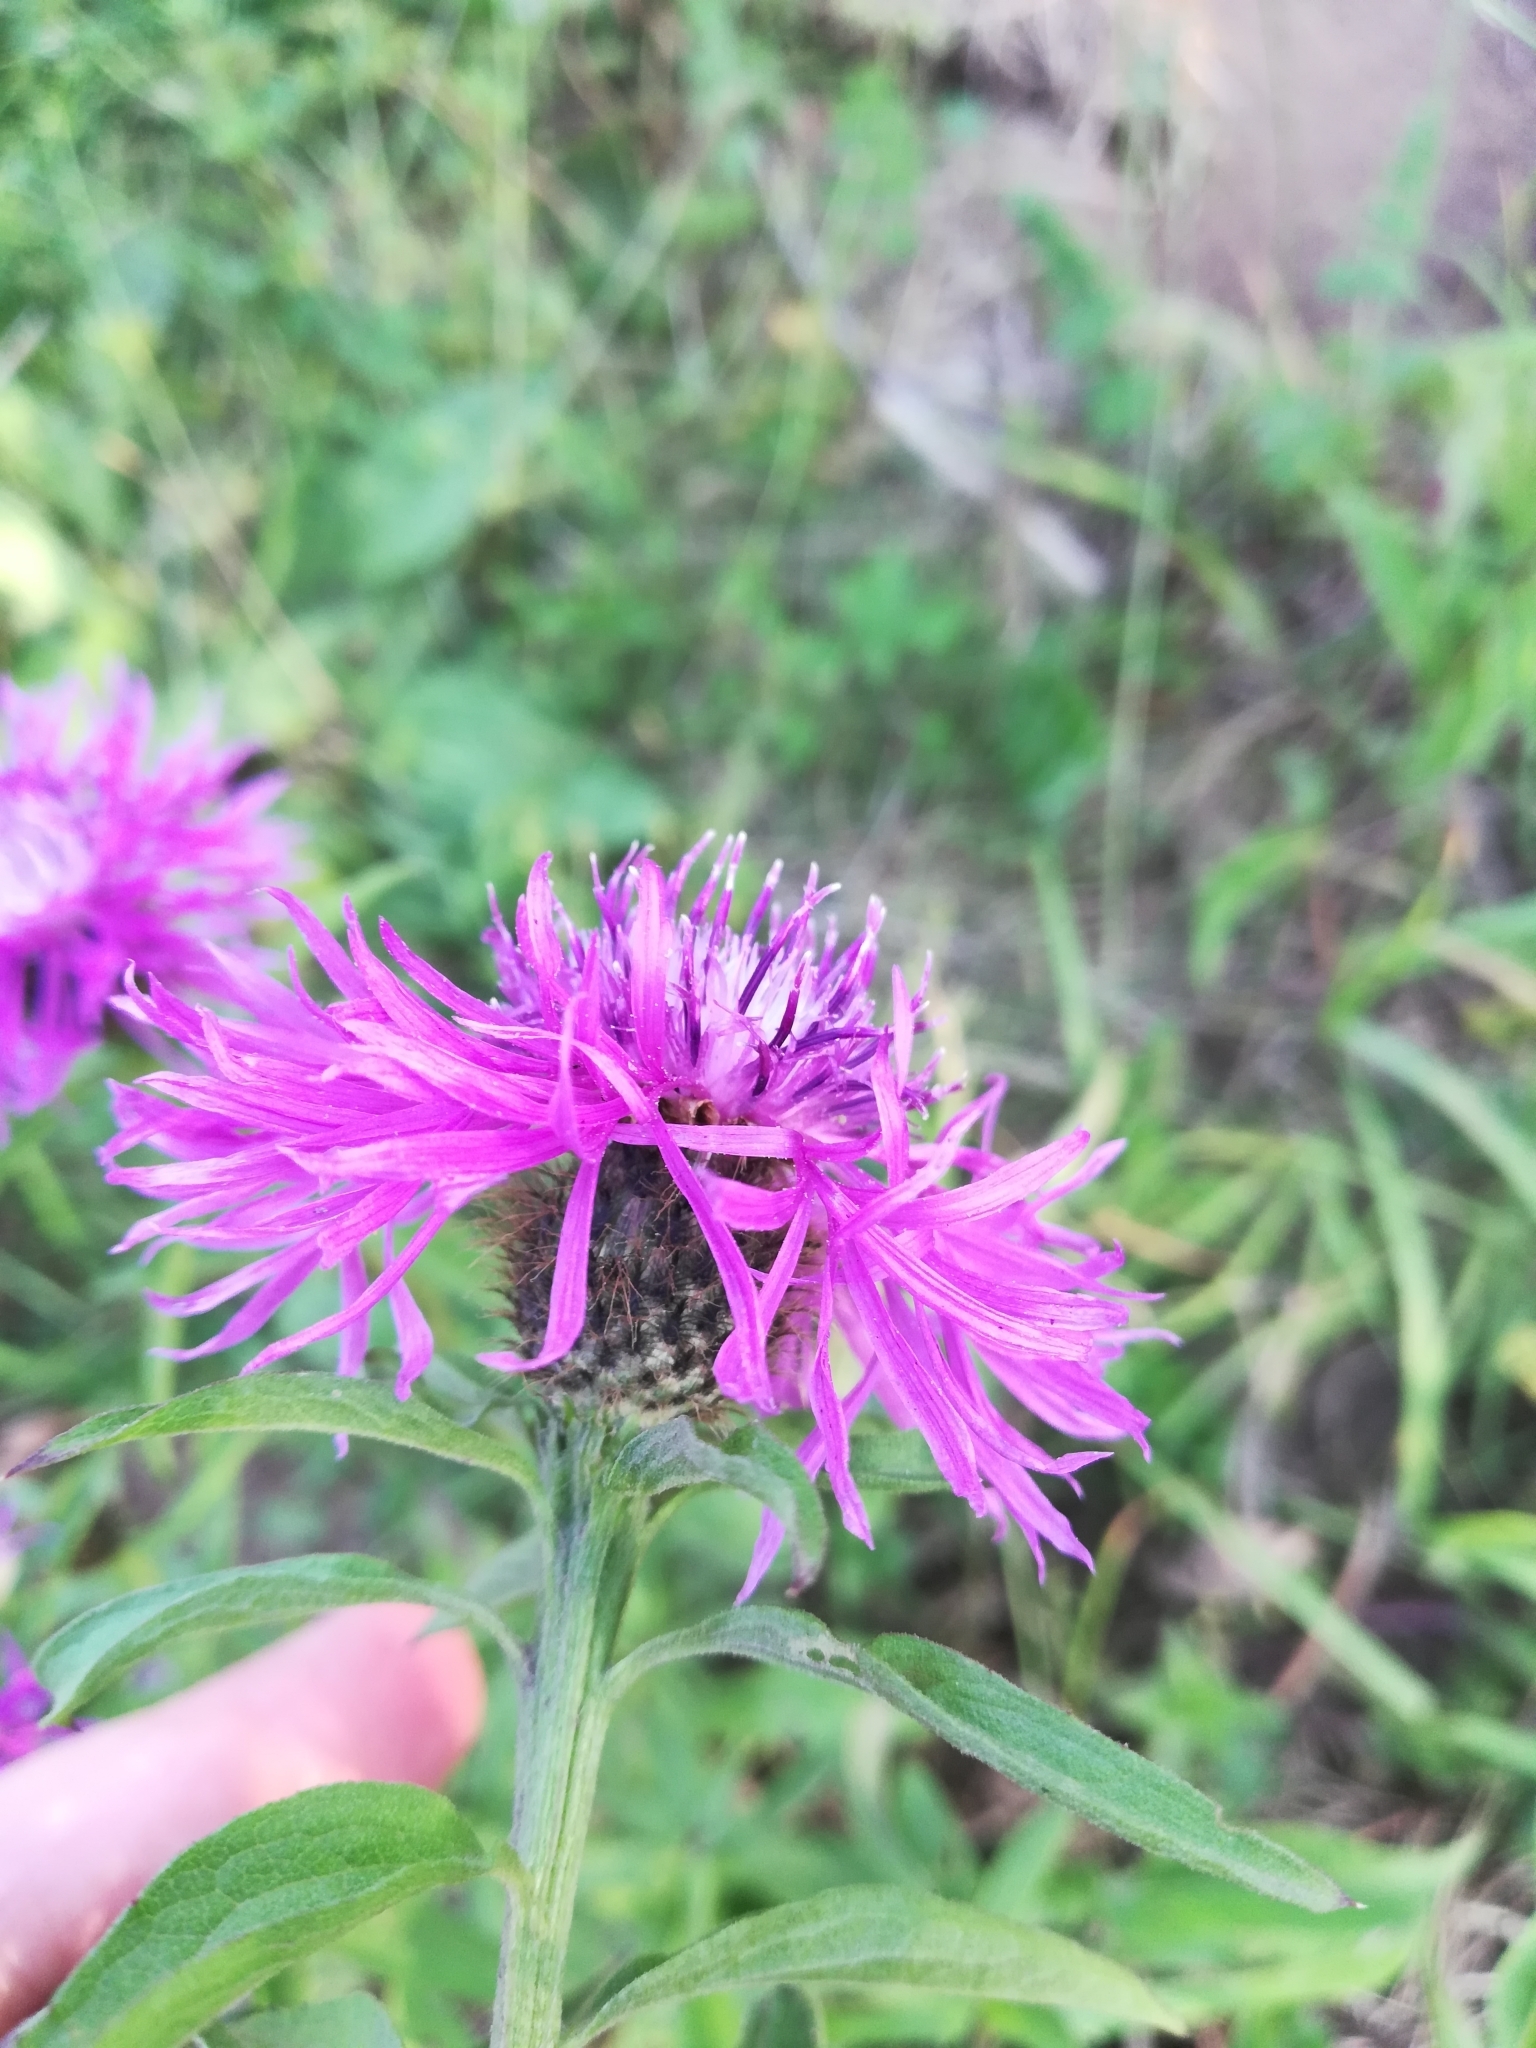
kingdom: Plantae
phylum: Tracheophyta
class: Magnoliopsida
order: Asterales
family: Asteraceae
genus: Centaurea
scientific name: Centaurea phrygia
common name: Wig knapweed
